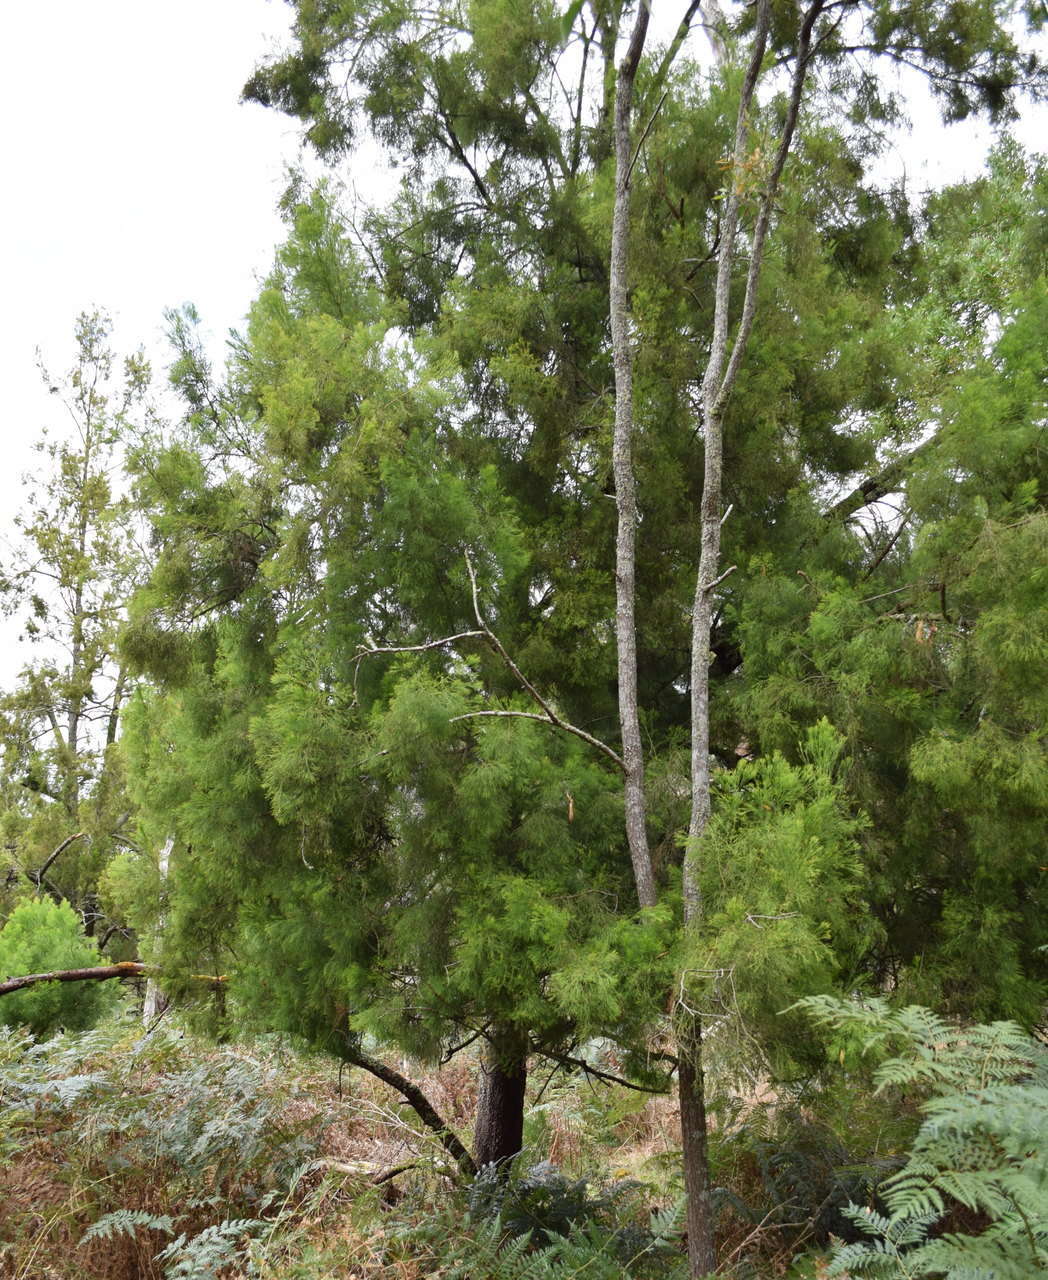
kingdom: Plantae
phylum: Tracheophyta
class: Magnoliopsida
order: Santalales
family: Santalaceae
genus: Exocarpos
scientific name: Exocarpos cupressiformis
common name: Cherry ballart
